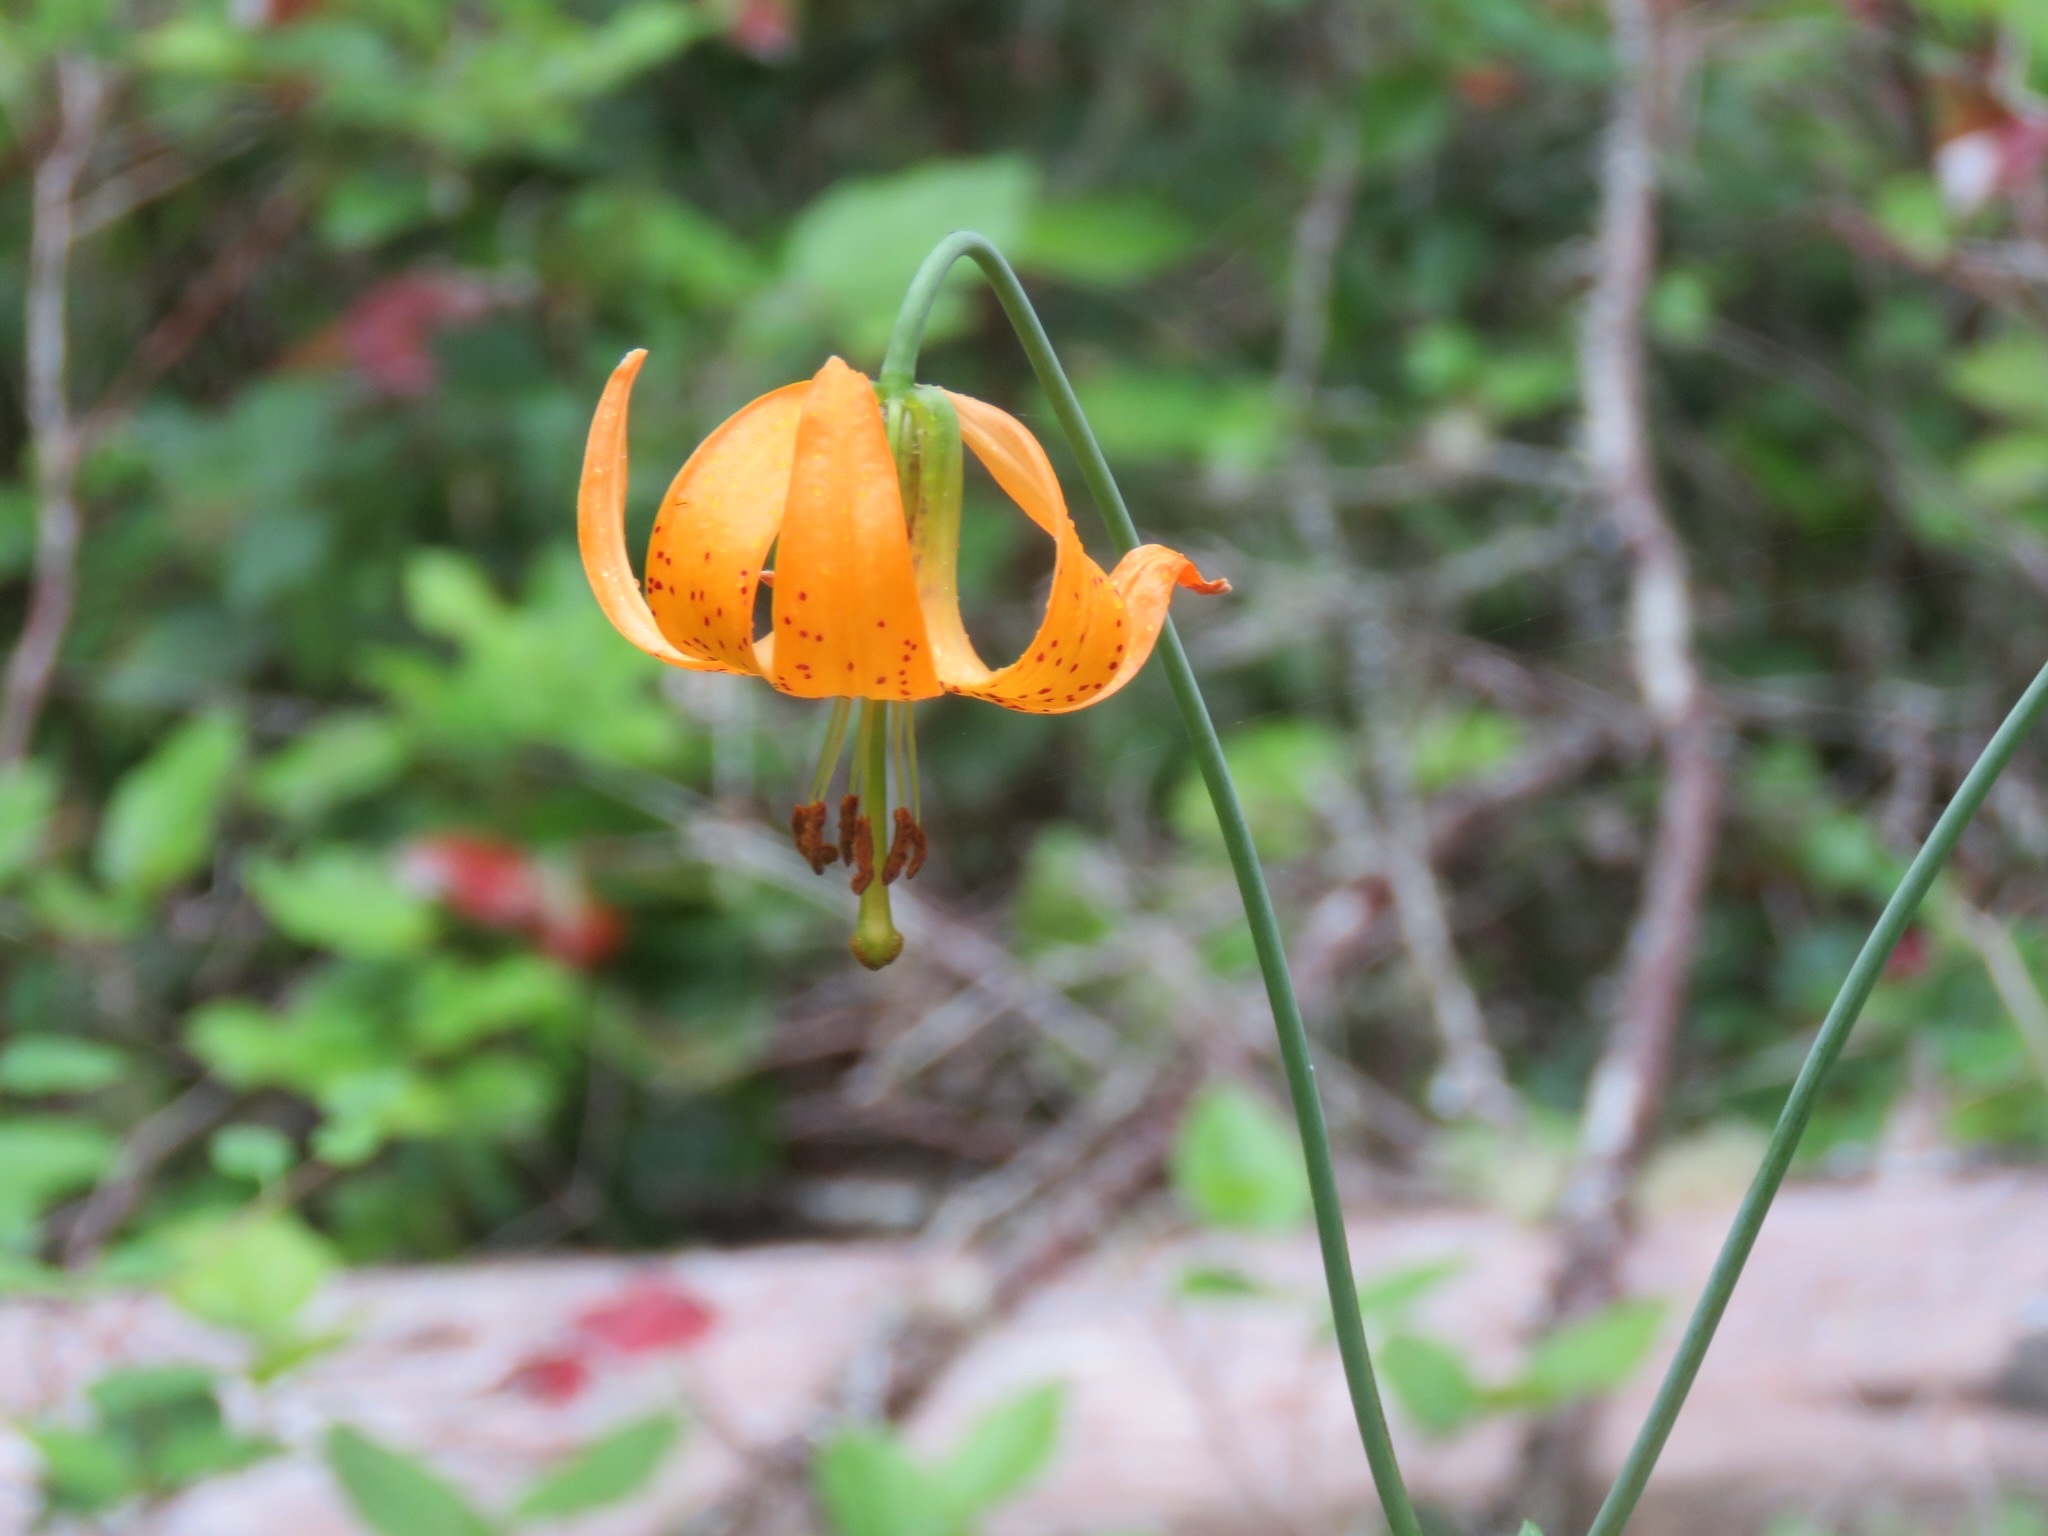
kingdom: Plantae
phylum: Tracheophyta
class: Liliopsida
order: Liliales
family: Liliaceae
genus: Lilium
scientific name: Lilium columbianum
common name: Columbia lily
